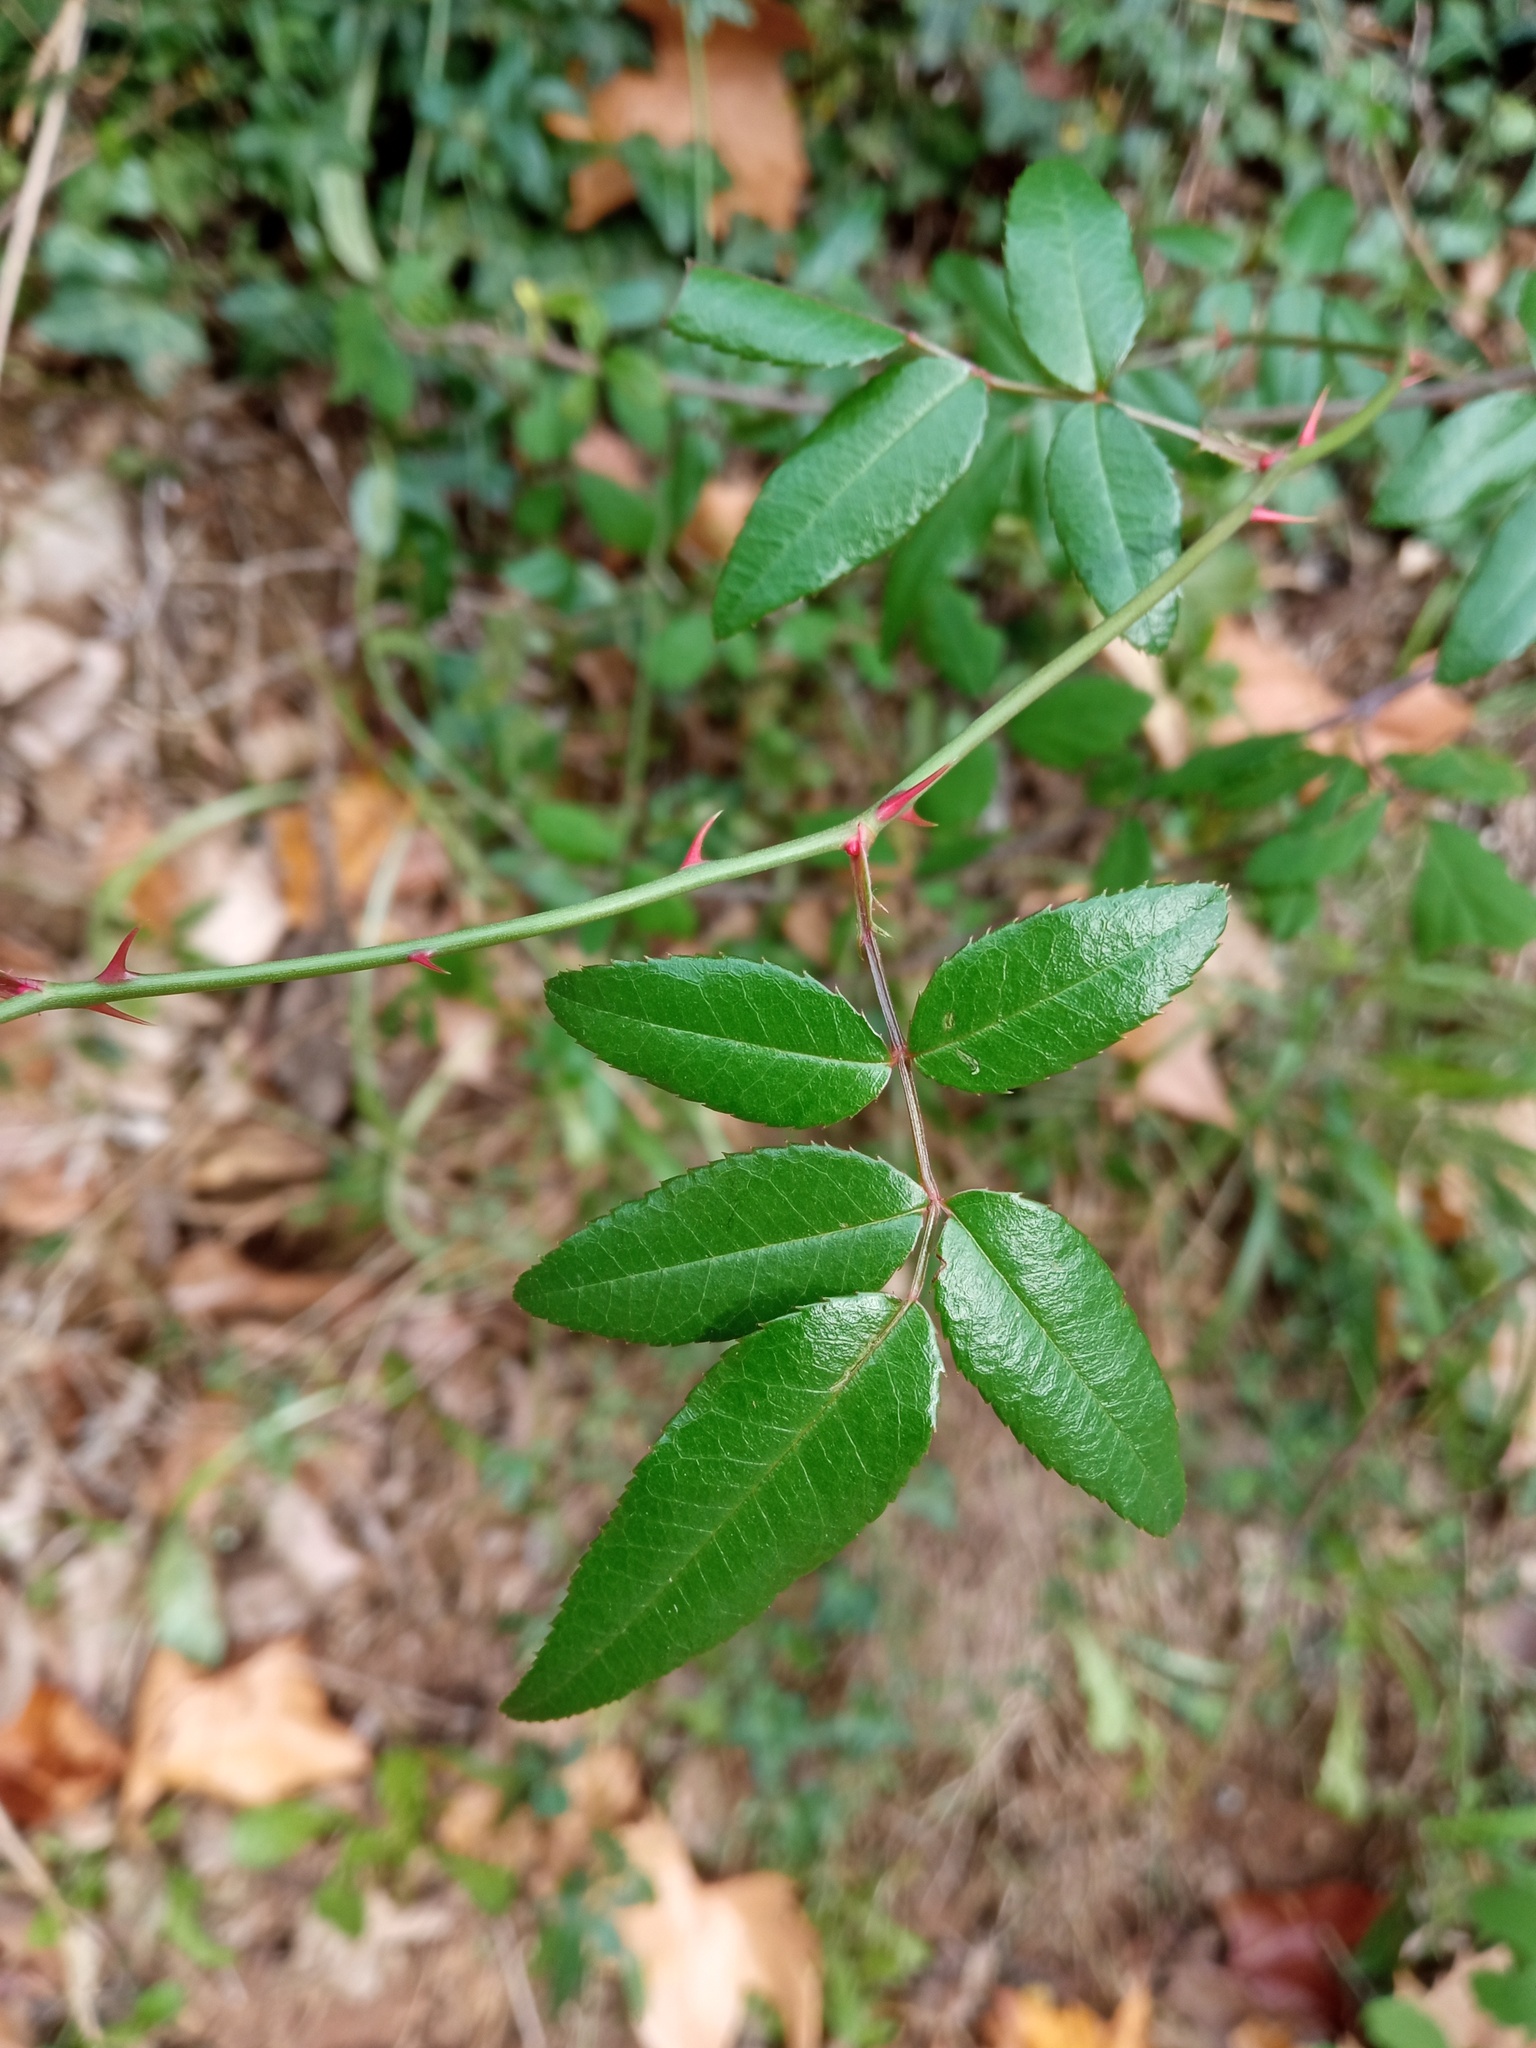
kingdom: Plantae
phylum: Tracheophyta
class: Magnoliopsida
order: Rosales
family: Rosaceae
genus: Rosa
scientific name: Rosa sempervirens
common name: Evergreen rose
